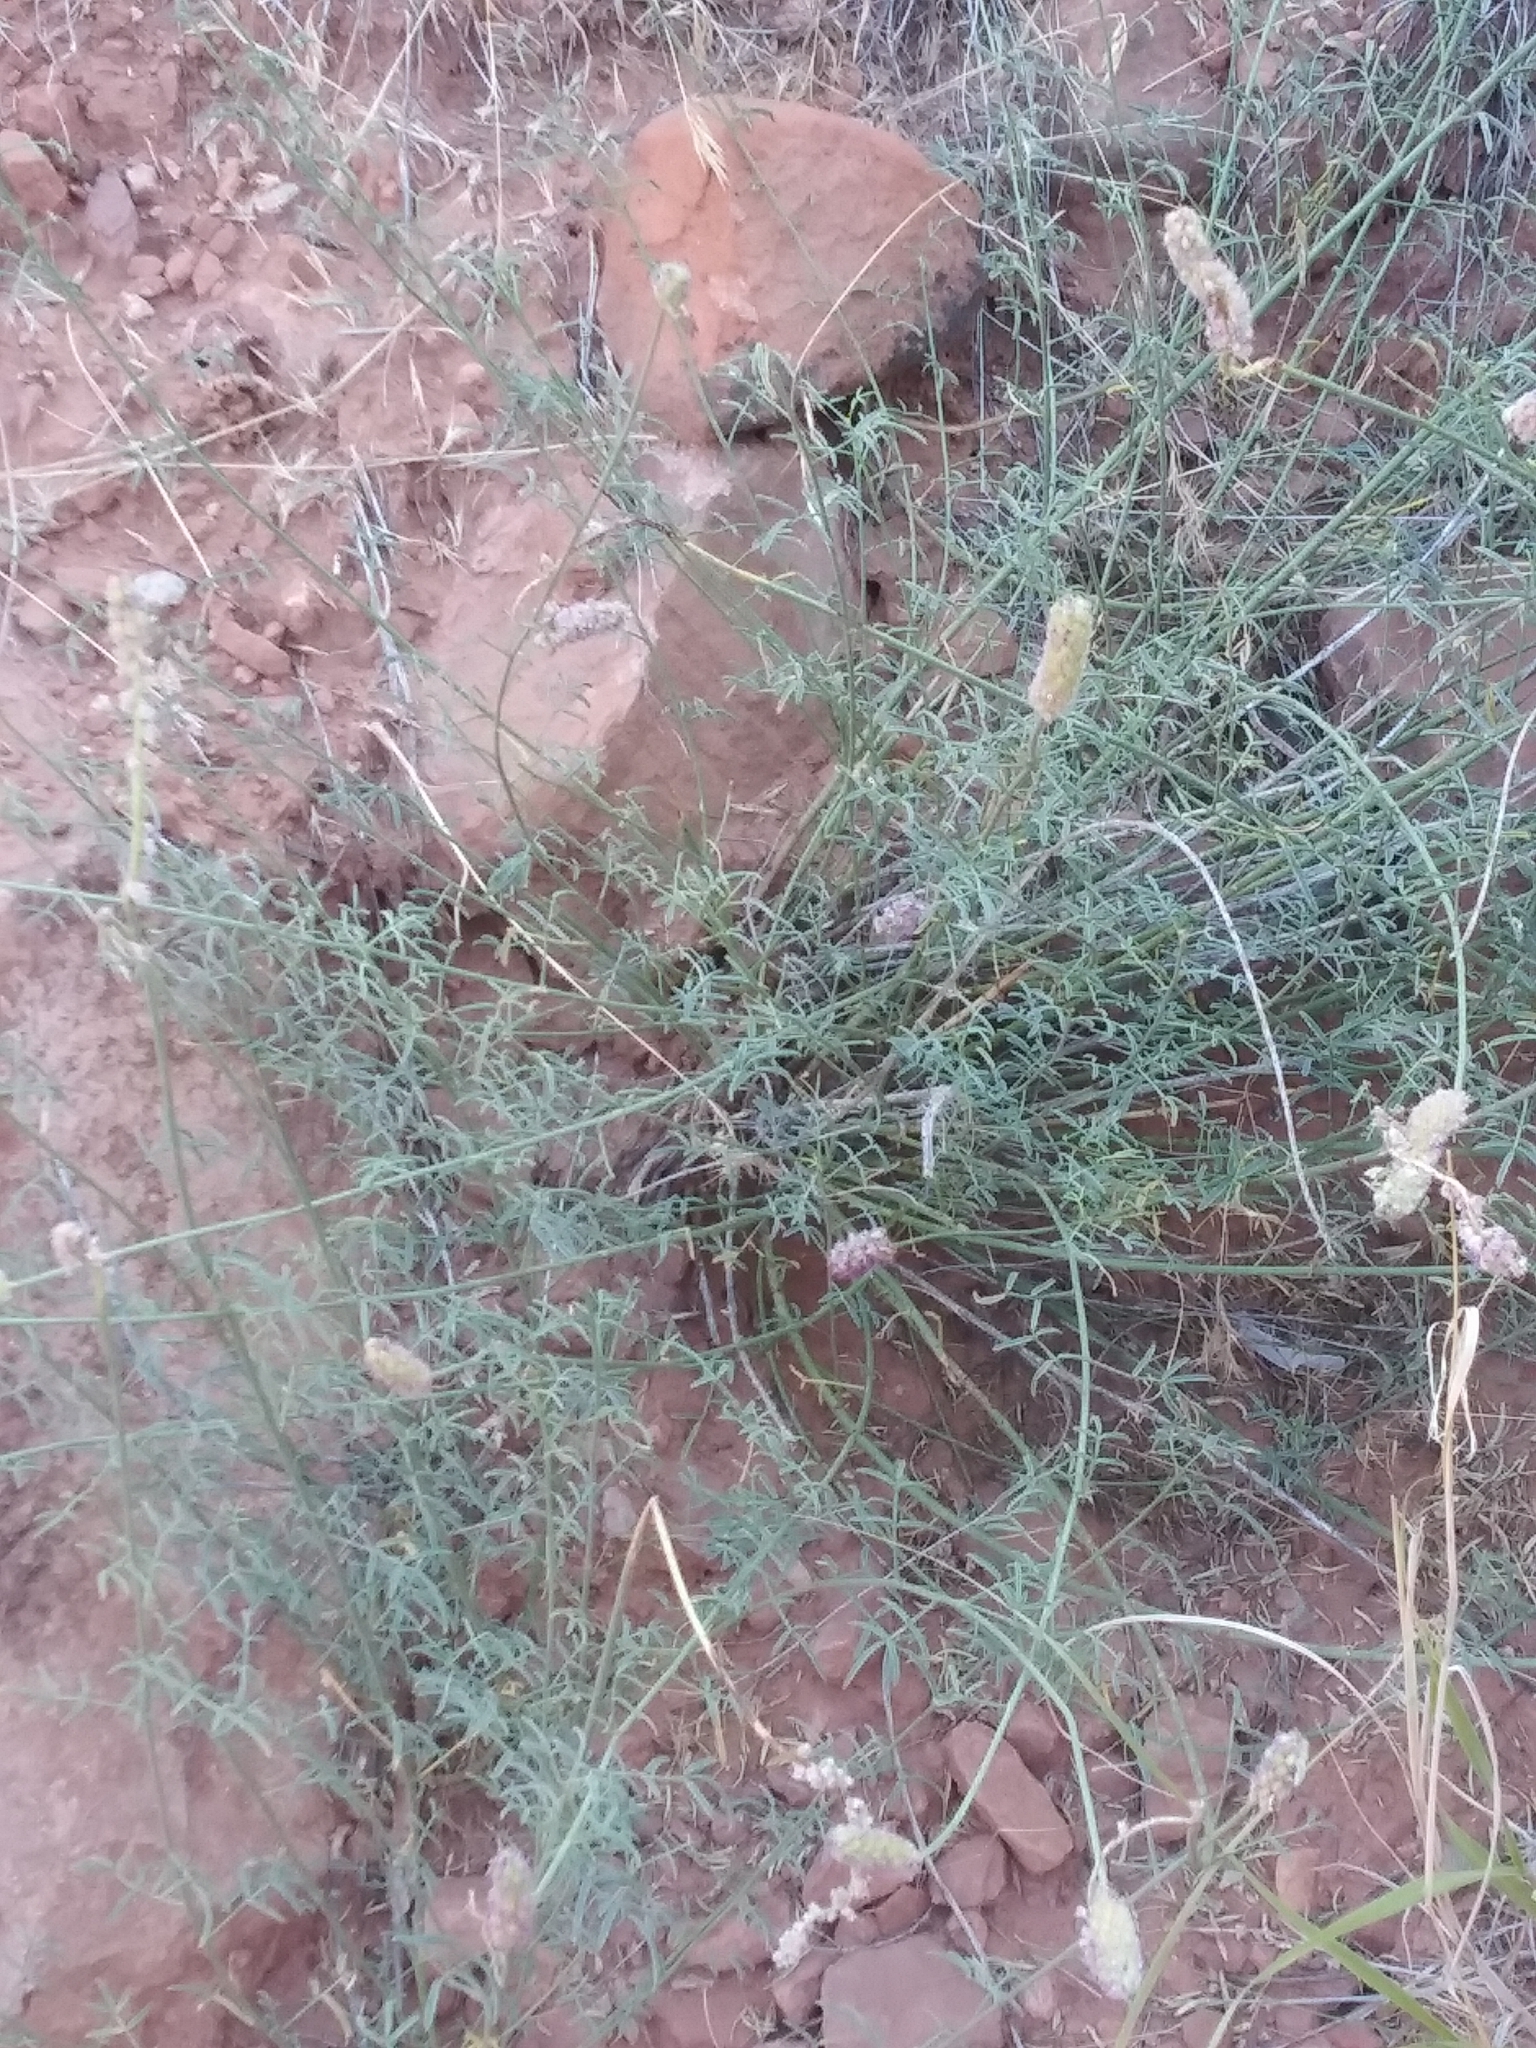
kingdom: Plantae
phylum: Tracheophyta
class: Magnoliopsida
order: Fabales
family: Fabaceae
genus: Dalea
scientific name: Dalea searlsiae
